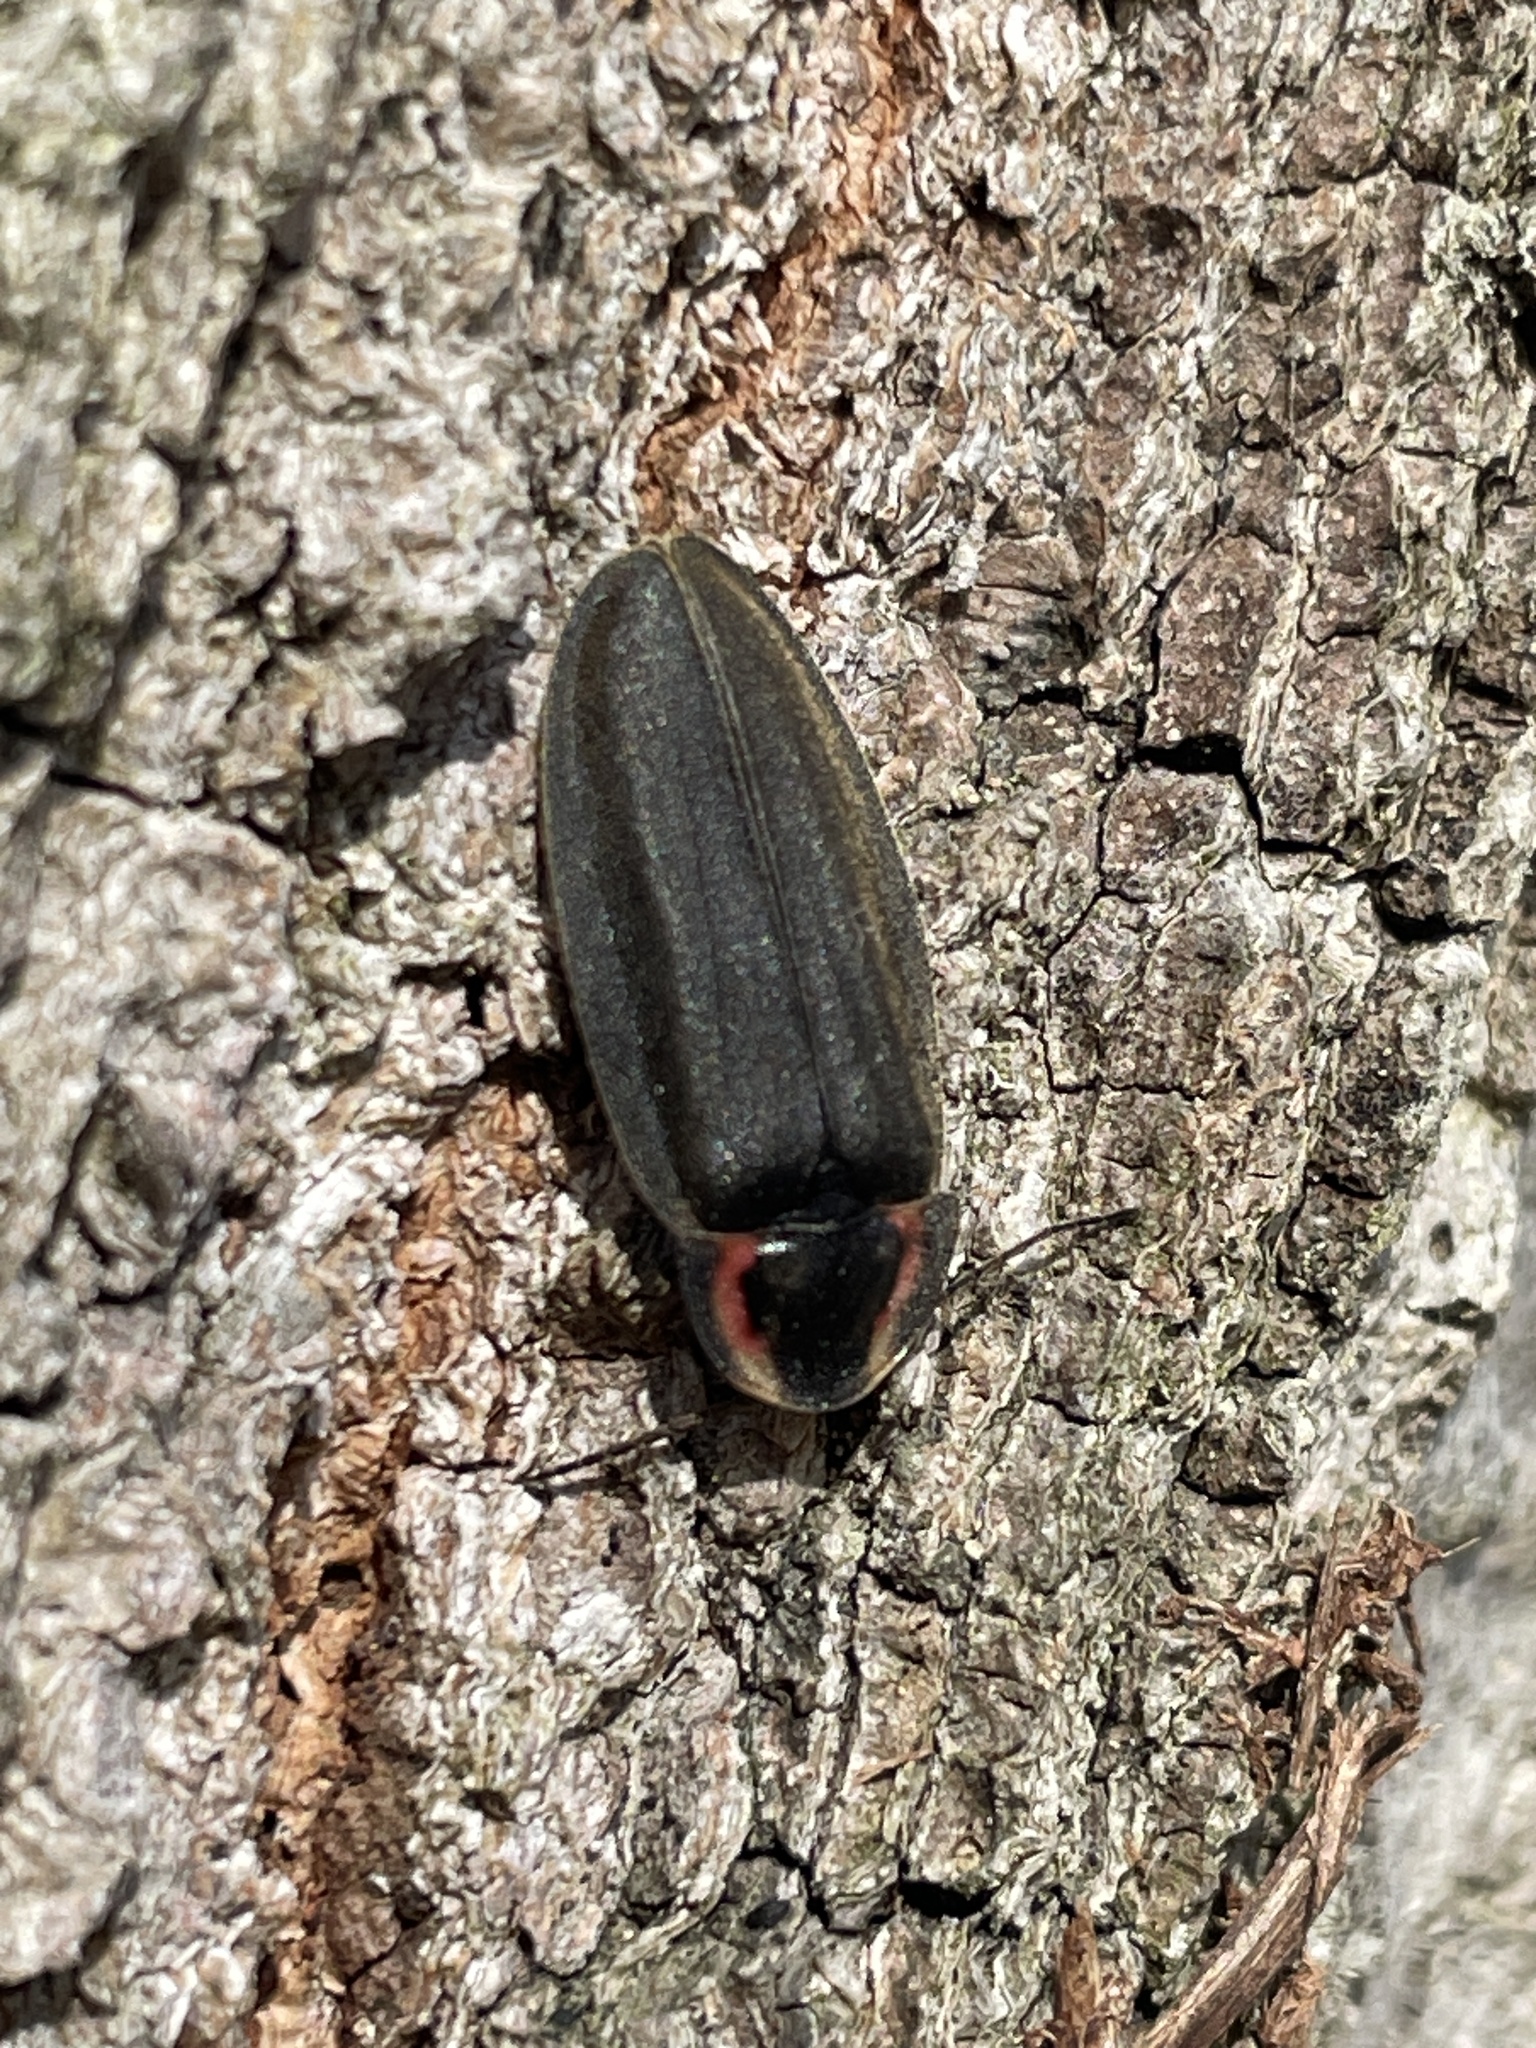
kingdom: Animalia
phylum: Arthropoda
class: Insecta
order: Coleoptera
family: Lampyridae
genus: Photinus
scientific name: Photinus corrusca
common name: Winter firefly
